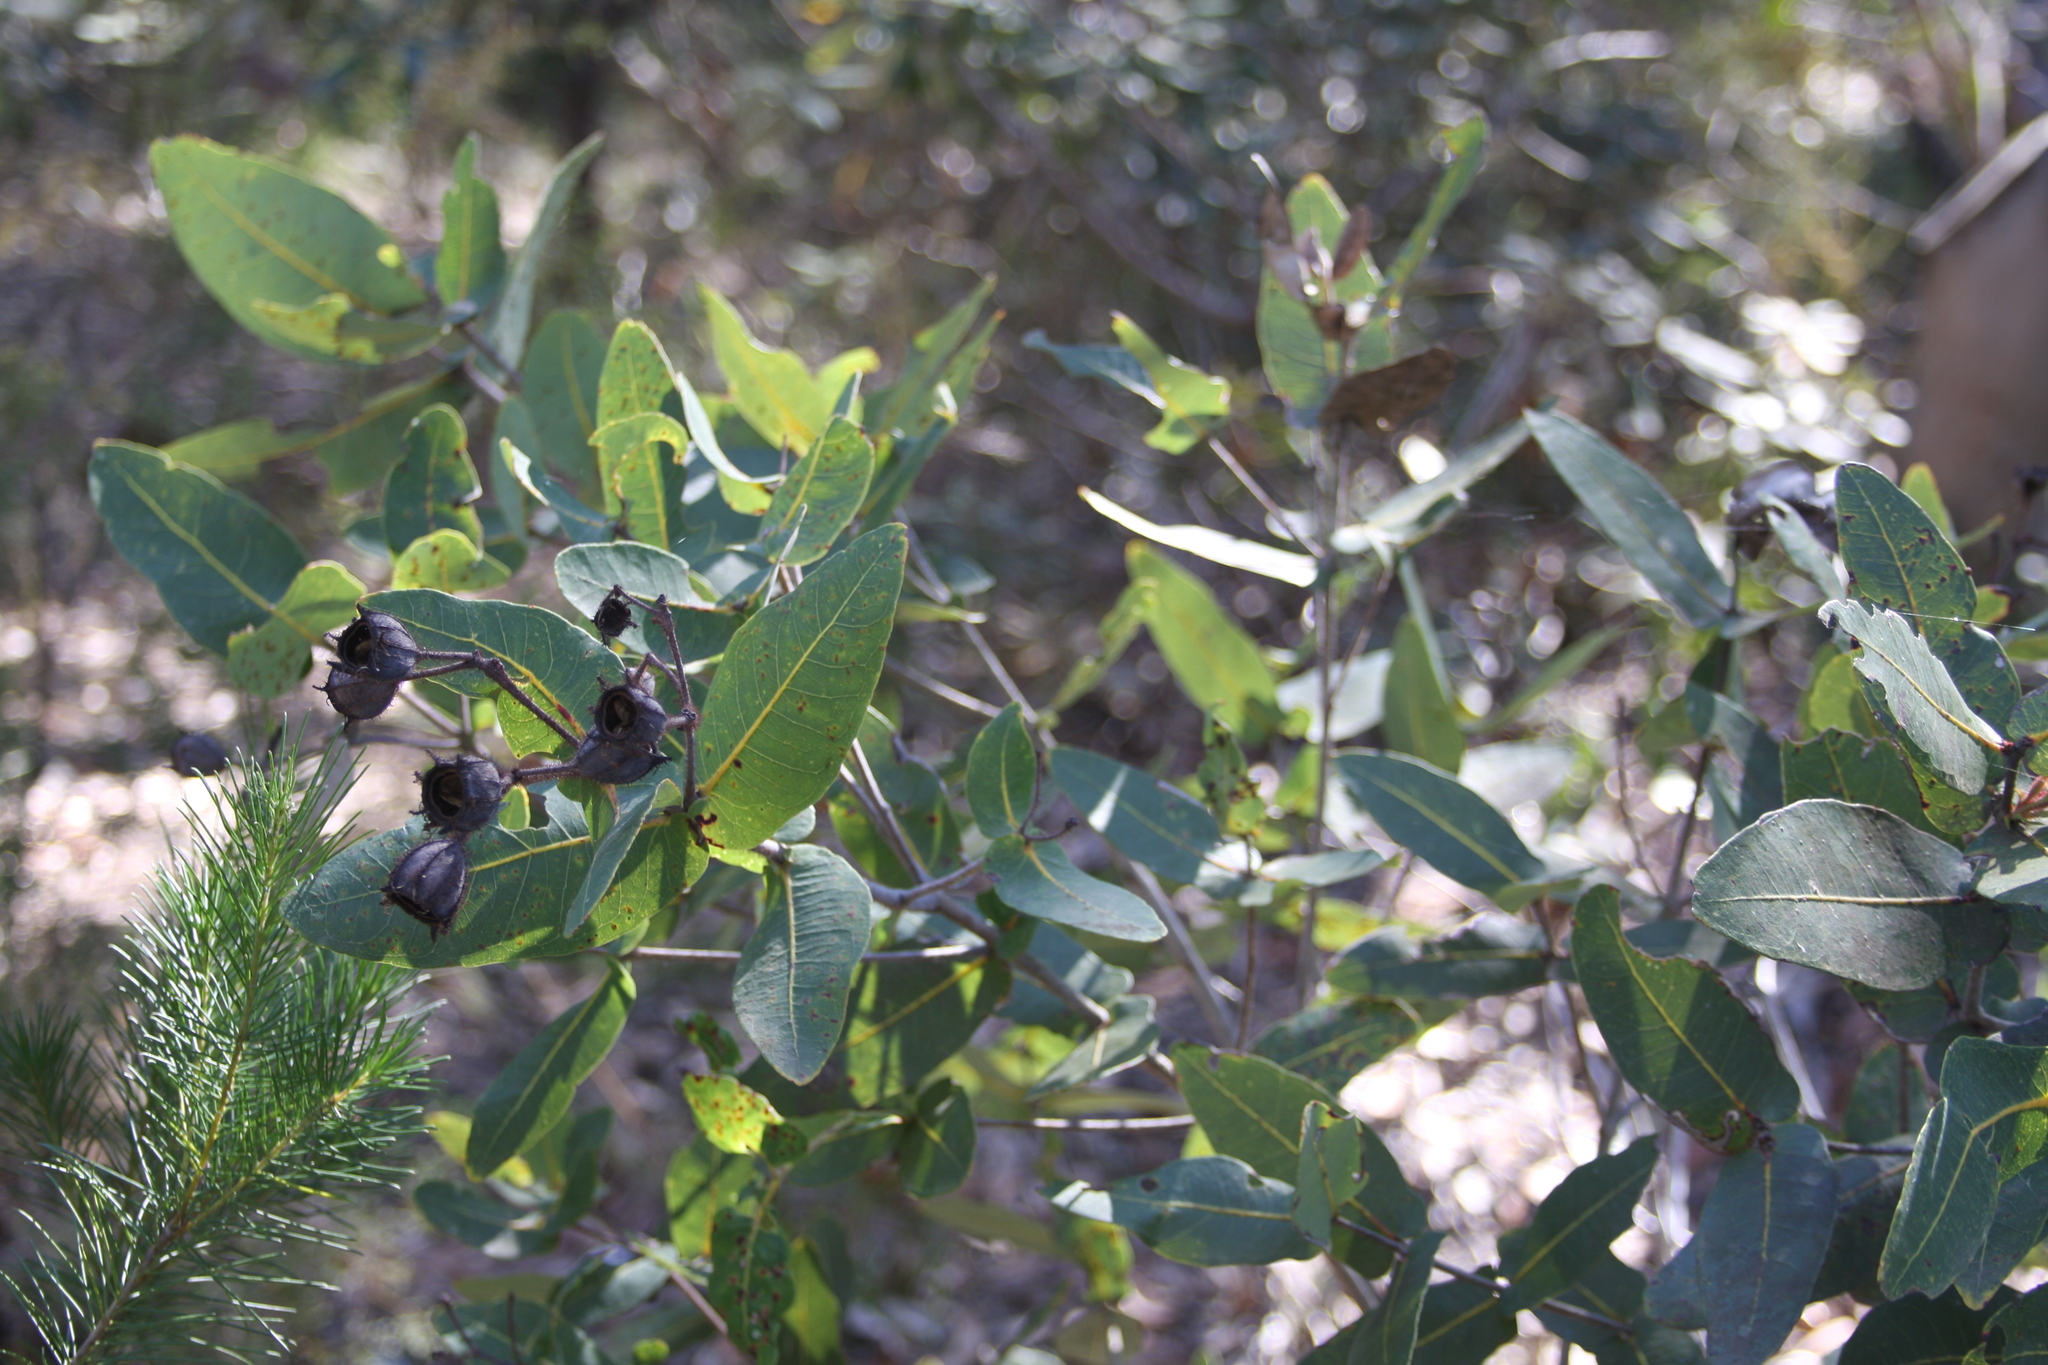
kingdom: Plantae
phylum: Tracheophyta
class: Magnoliopsida
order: Myrtales
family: Myrtaceae
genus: Angophora
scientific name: Angophora hispida
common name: Dwarf-apple
